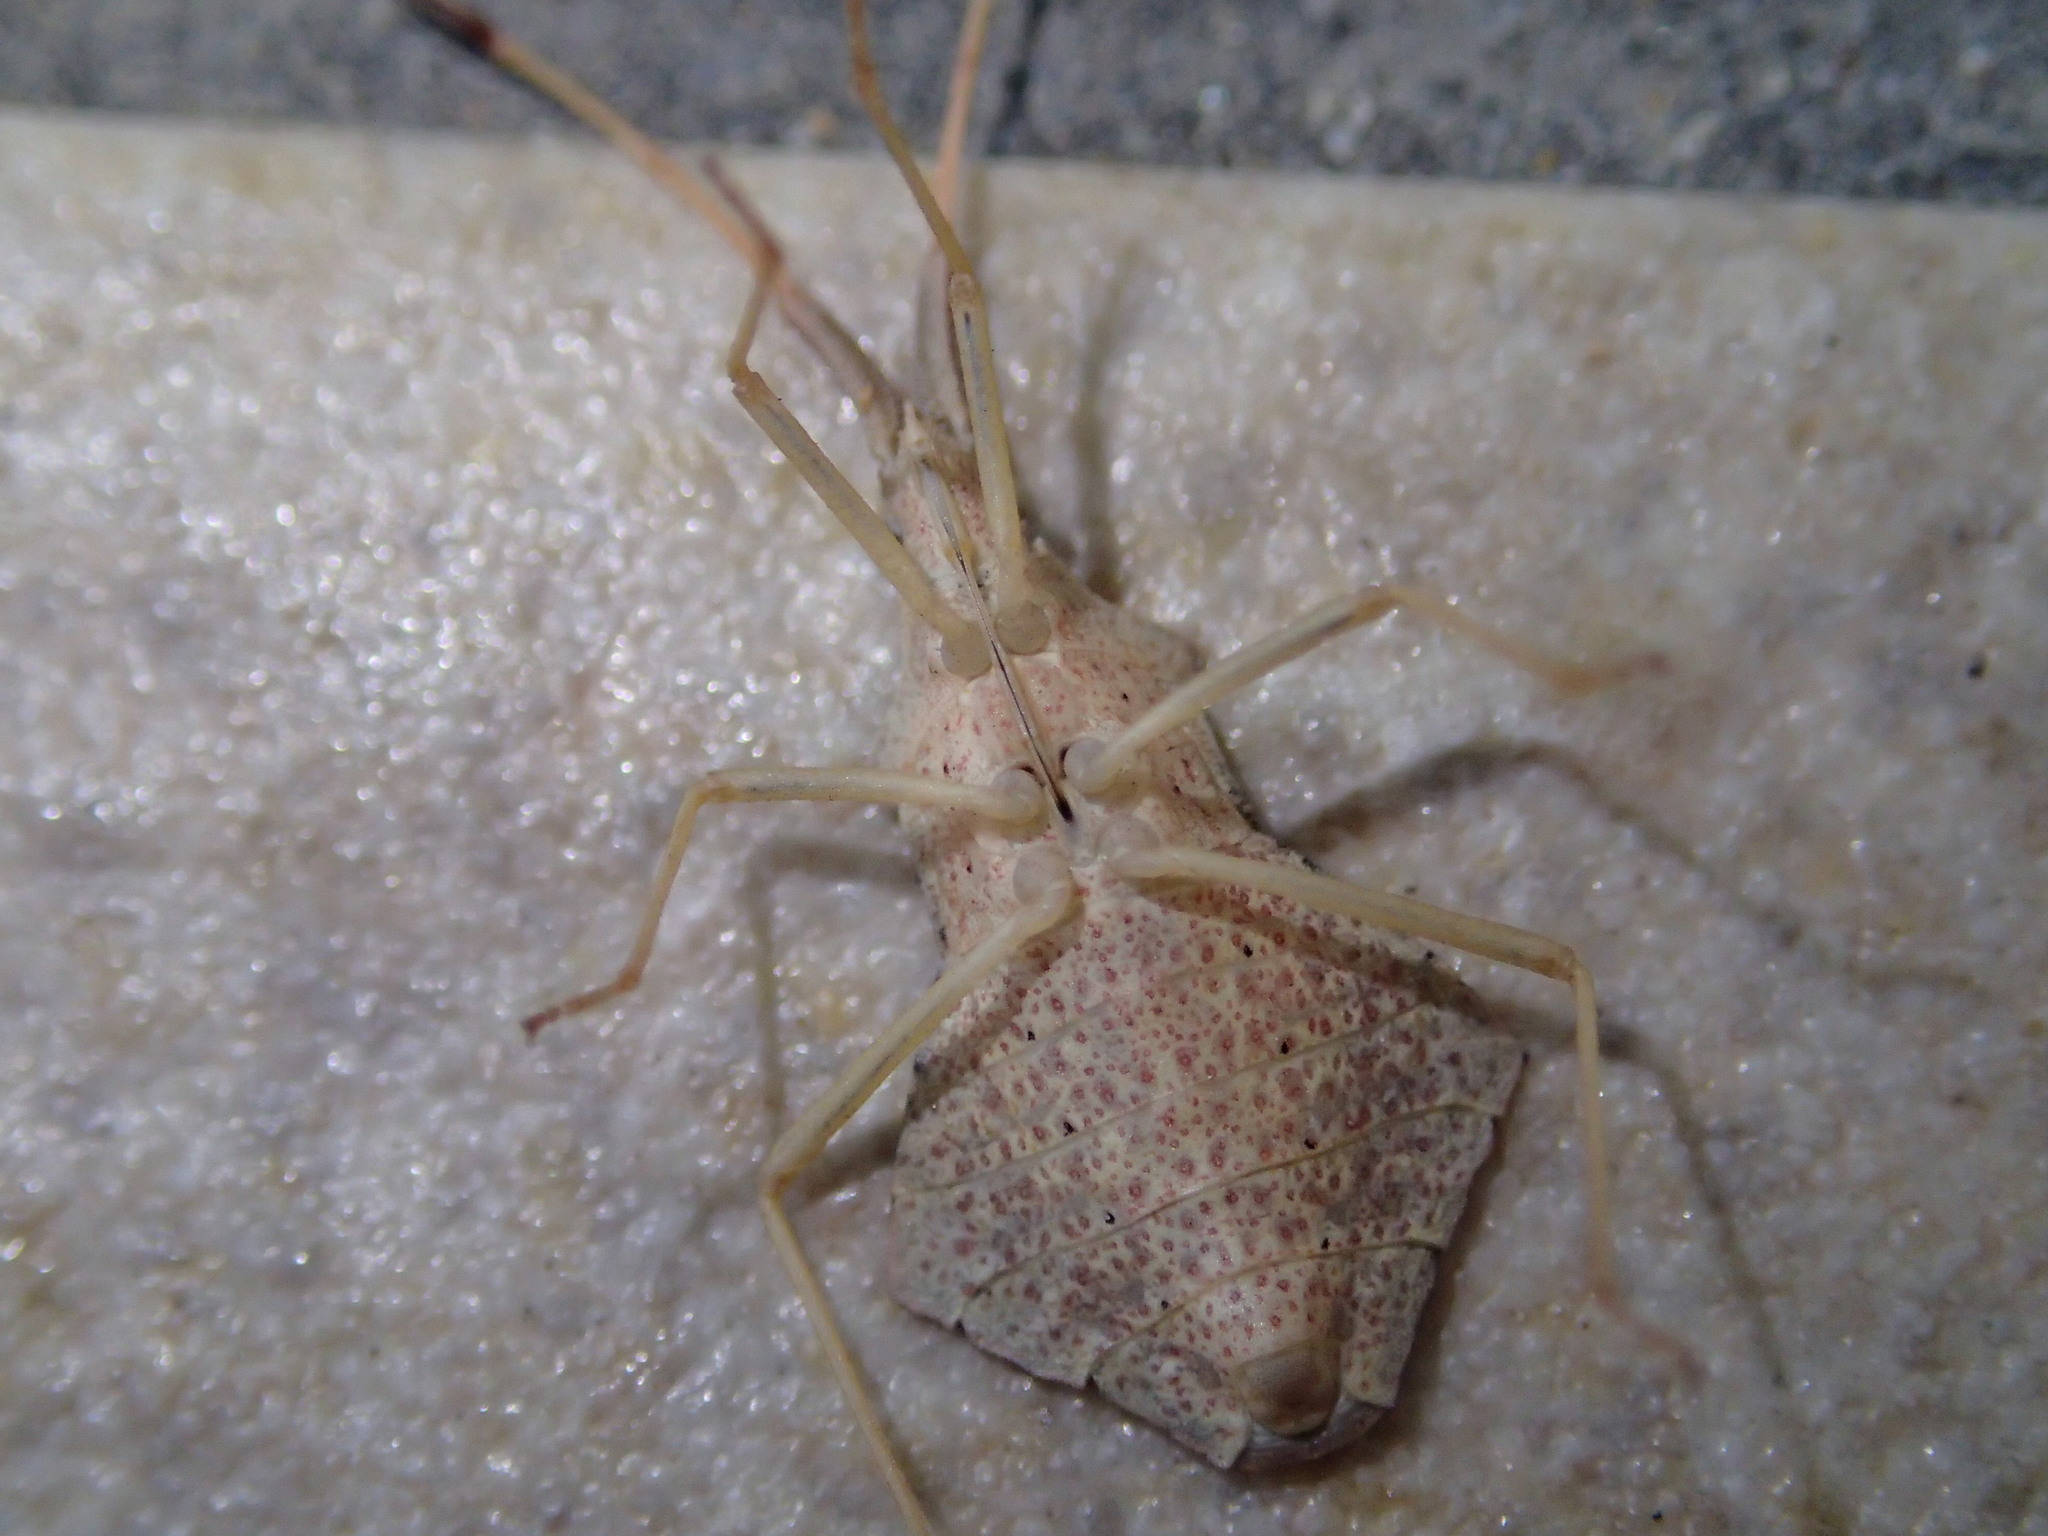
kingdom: Animalia
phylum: Arthropoda
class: Insecta
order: Hemiptera
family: Coreidae
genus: Syromastus
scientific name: Syromastus rhombeus
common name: Rhombic leatherbug
